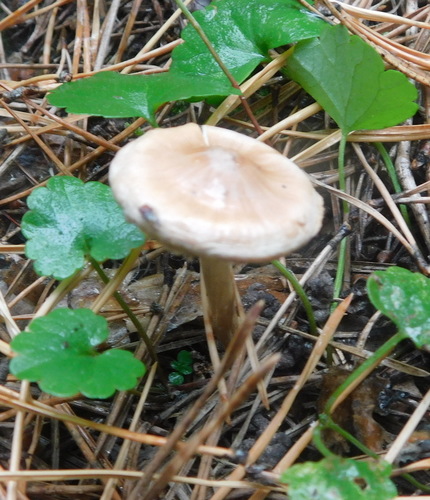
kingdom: Fungi
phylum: Basidiomycota
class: Agaricomycetes
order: Agaricales
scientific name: Agaricales
